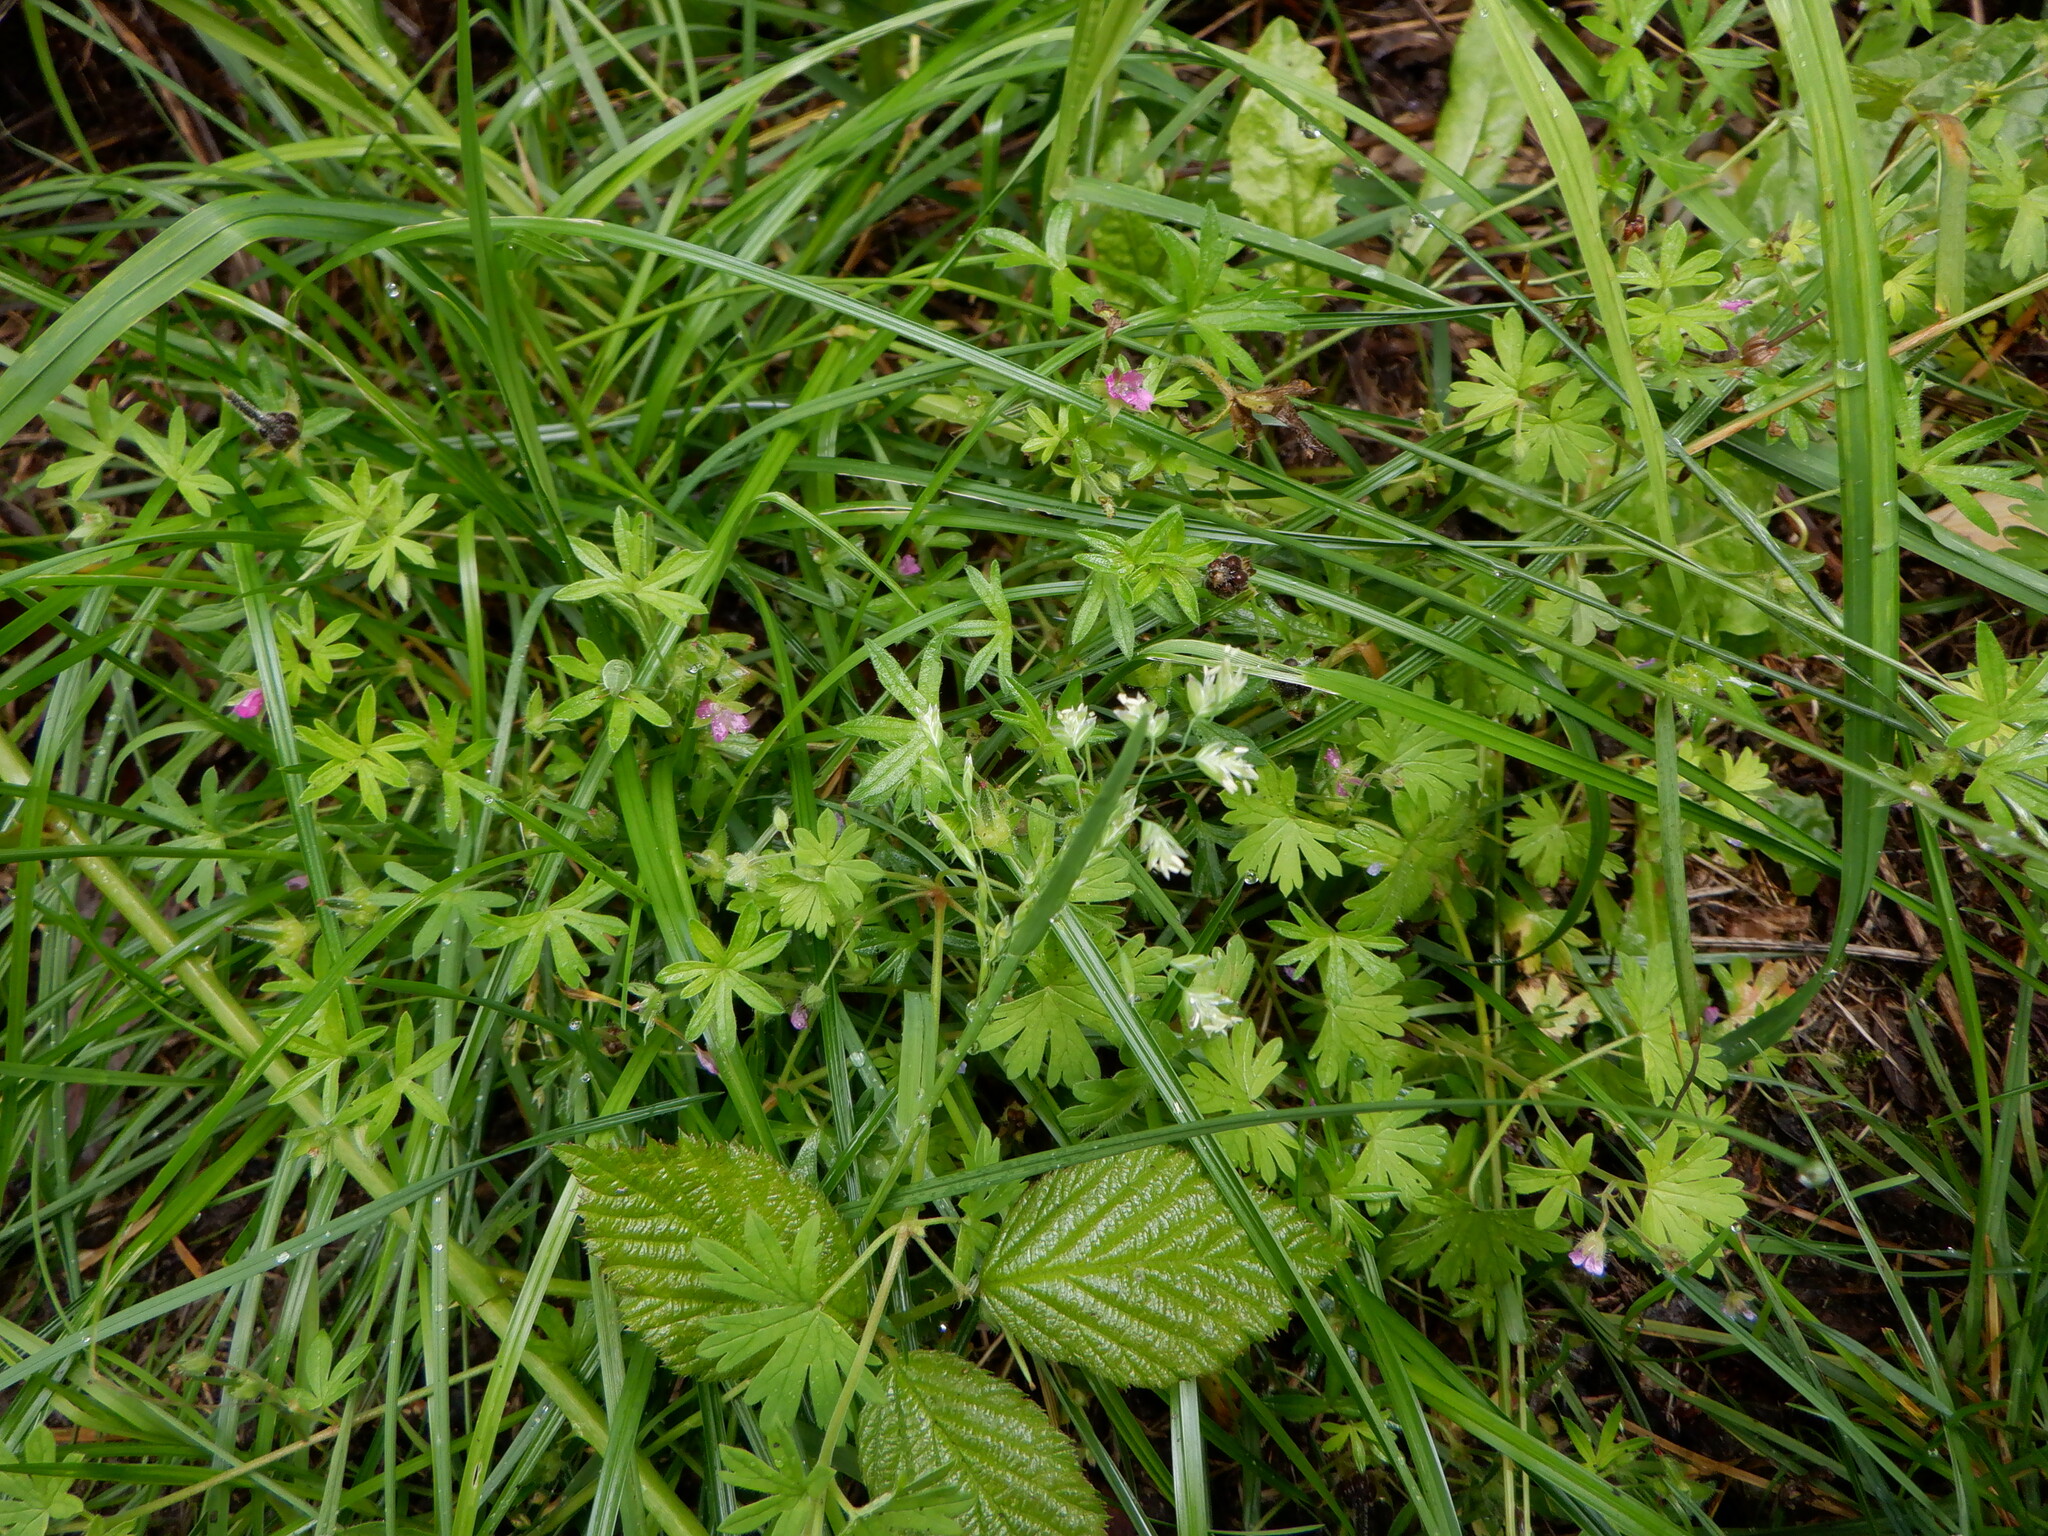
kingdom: Plantae
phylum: Tracheophyta
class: Magnoliopsida
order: Geraniales
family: Geraniaceae
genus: Geranium
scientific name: Geranium dissectum
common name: Cut-leaved crane's-bill
